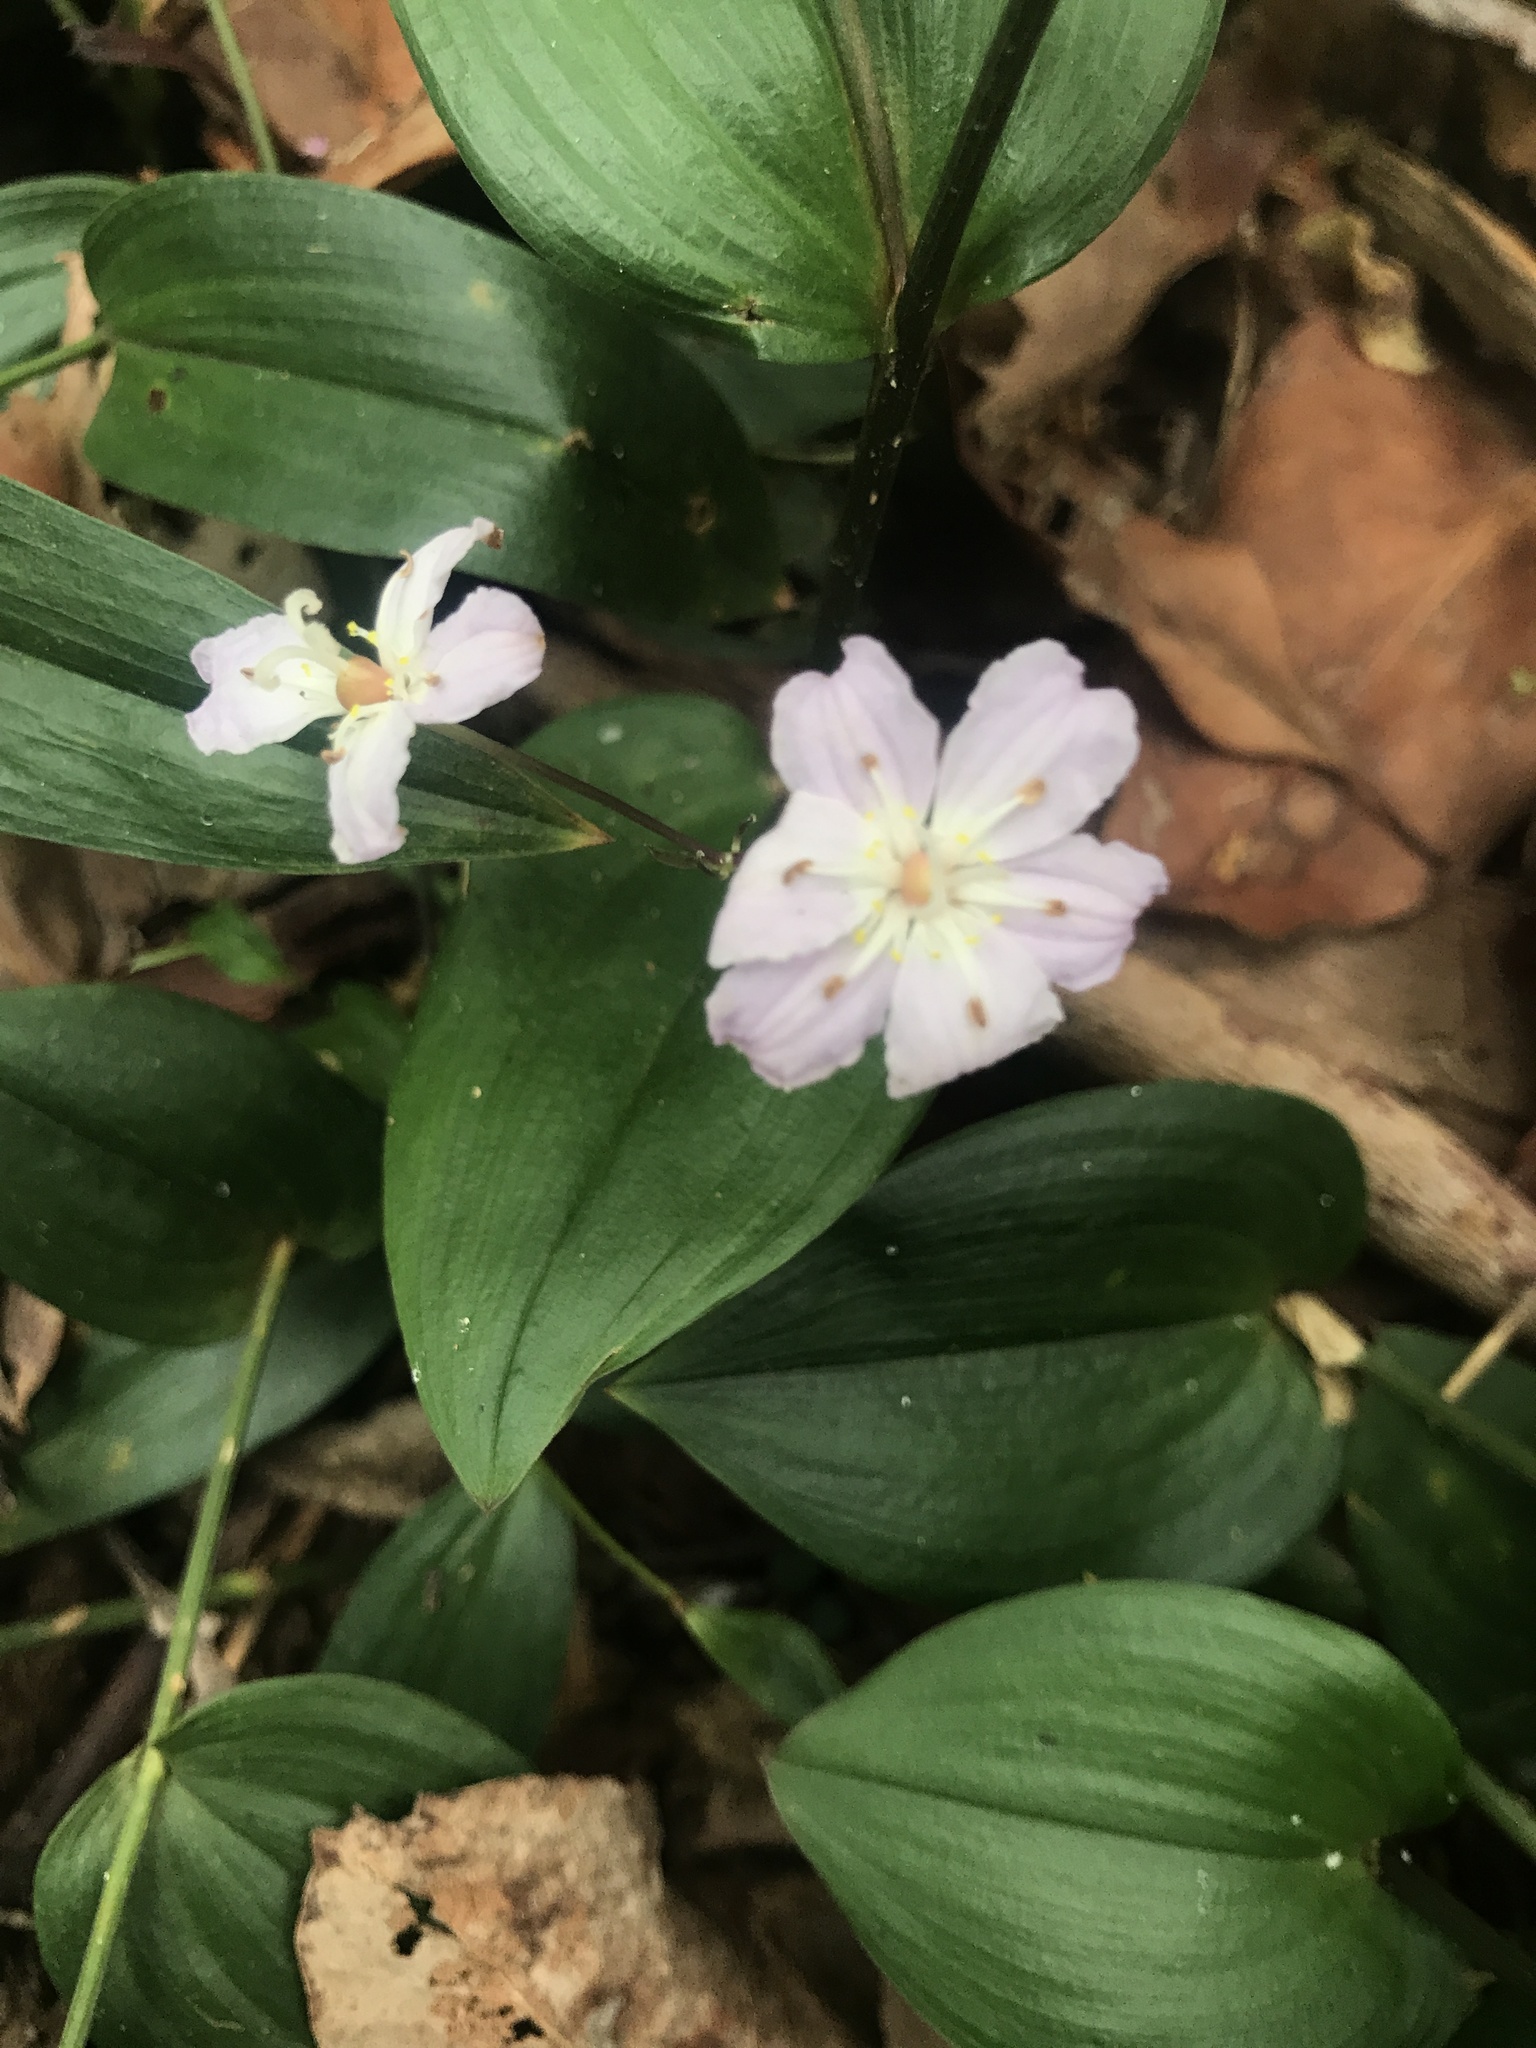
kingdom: Plantae
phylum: Tracheophyta
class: Liliopsida
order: Liliales
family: Colchicaceae
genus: Tripladenia
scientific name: Tripladenia cunninghamii
